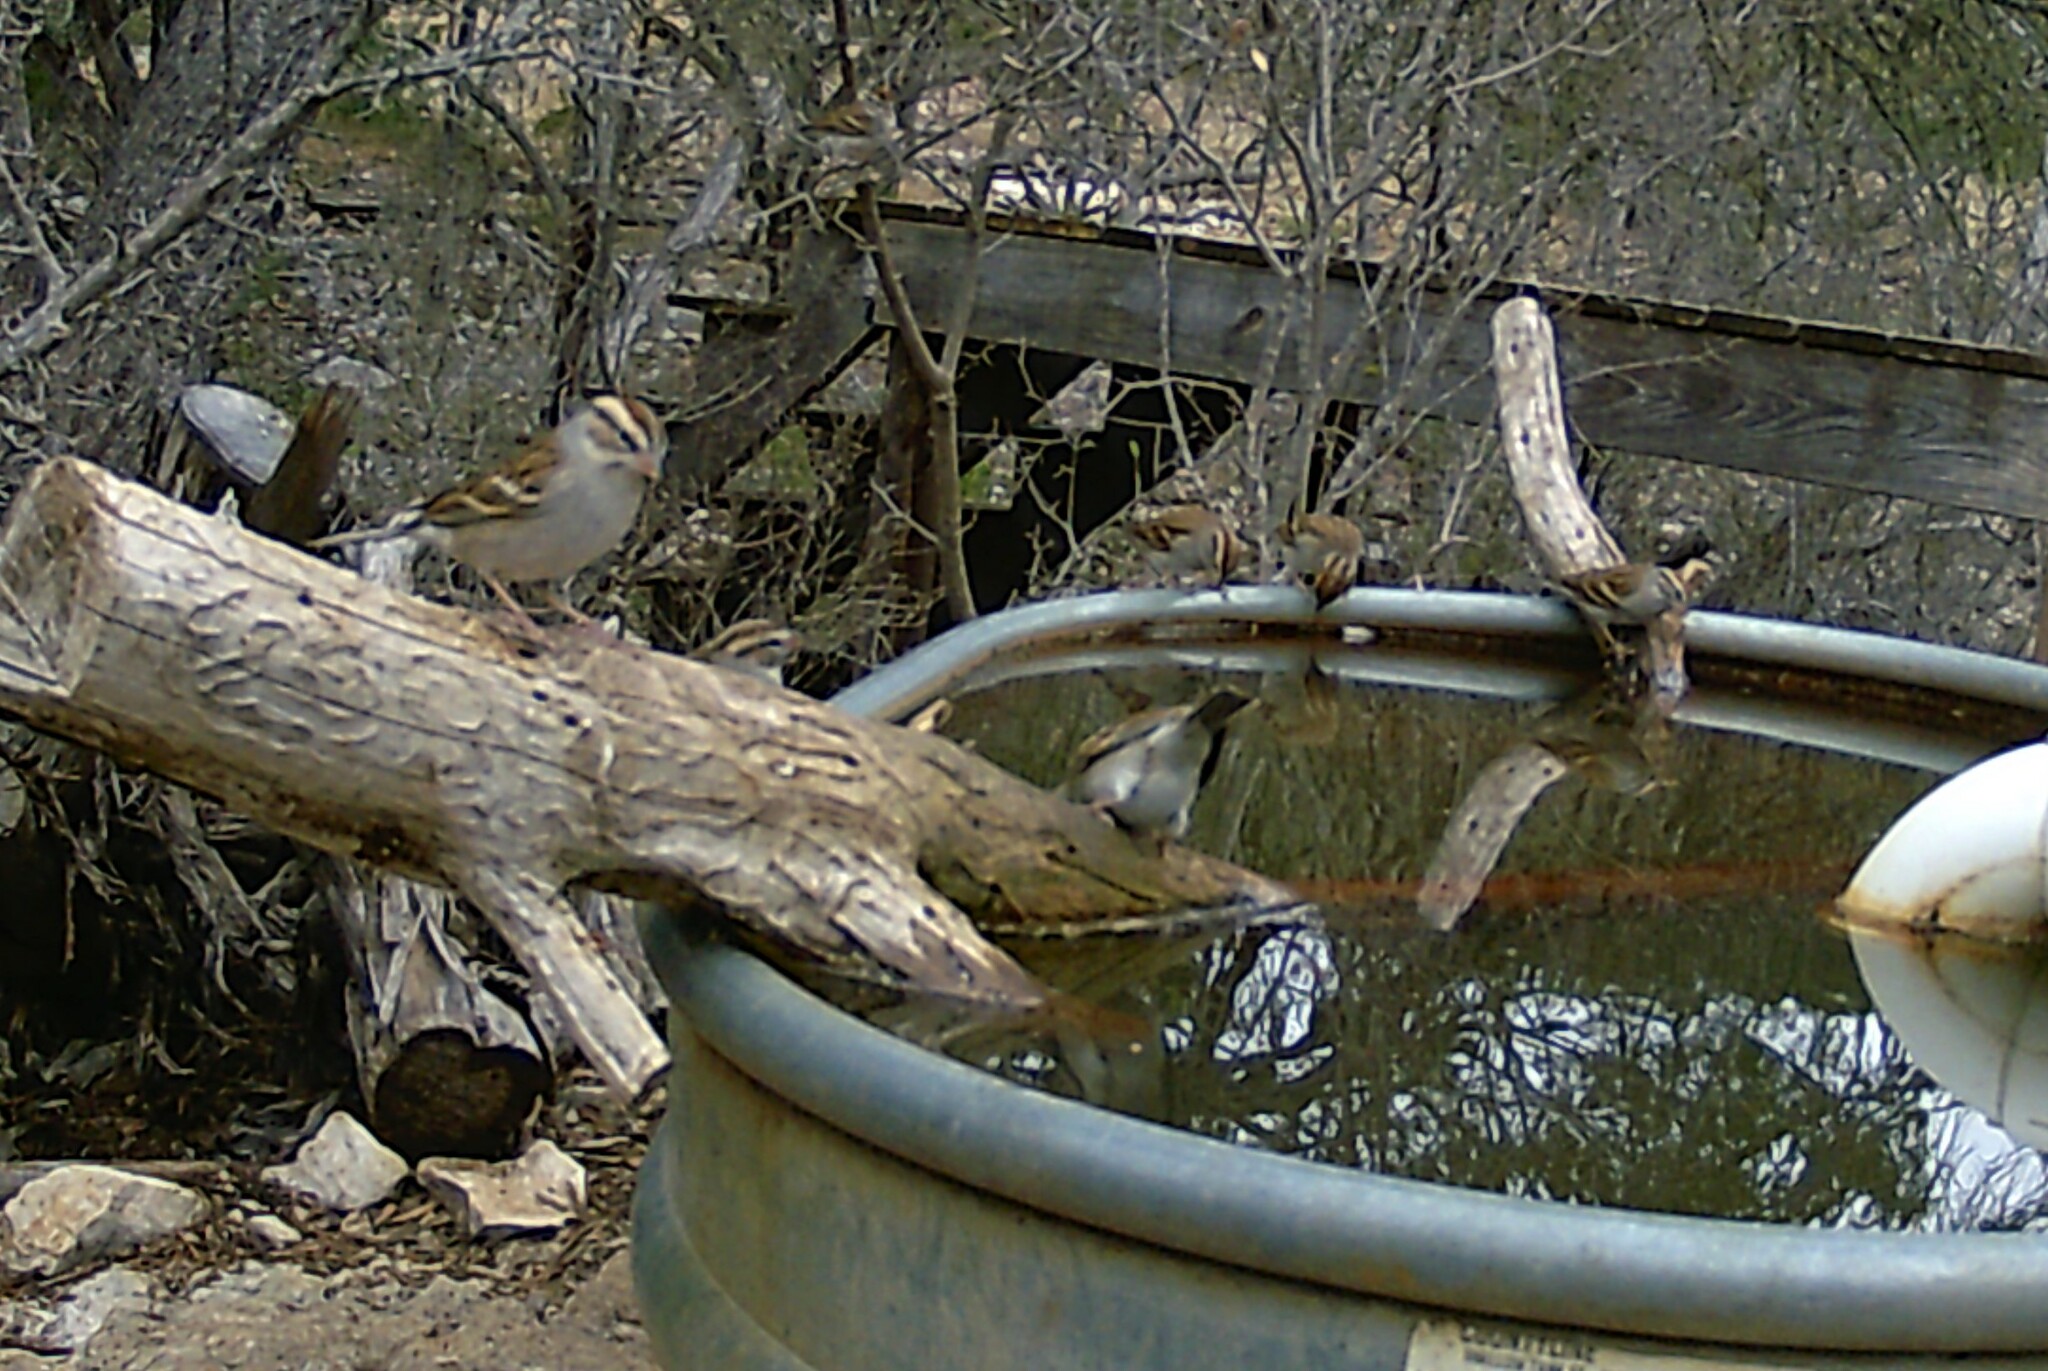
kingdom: Animalia
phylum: Chordata
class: Aves
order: Passeriformes
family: Passerellidae
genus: Spizella
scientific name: Spizella passerina
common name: Chipping sparrow
